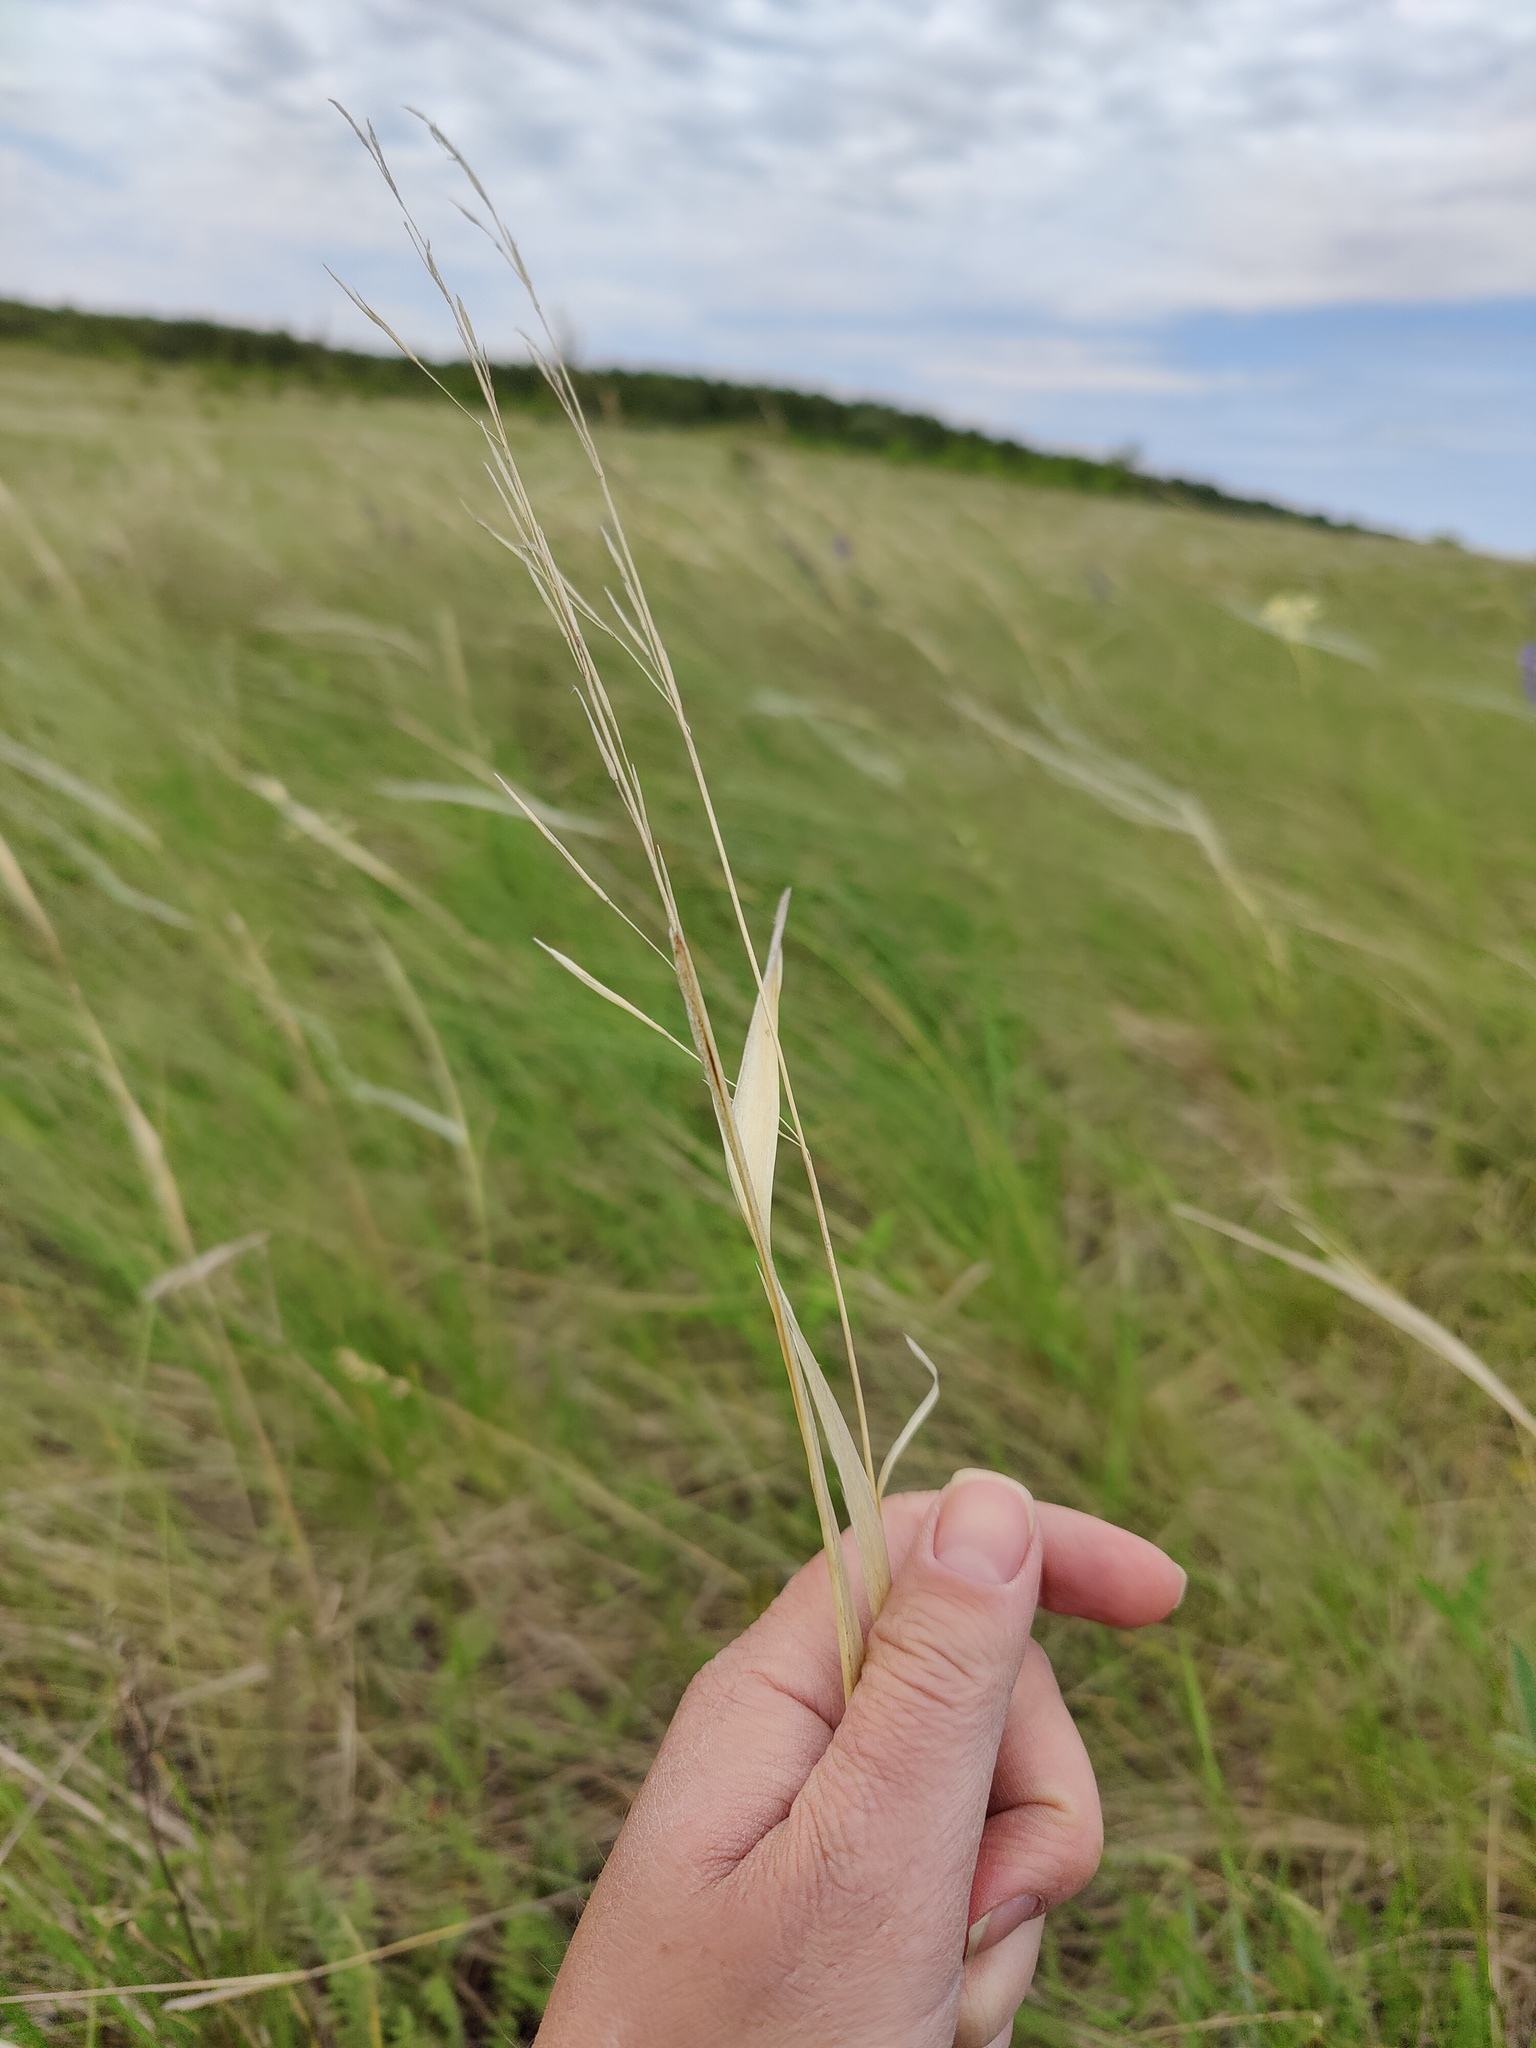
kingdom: Plantae
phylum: Tracheophyta
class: Liliopsida
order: Poales
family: Poaceae
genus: Stipa
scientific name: Stipa capillata
